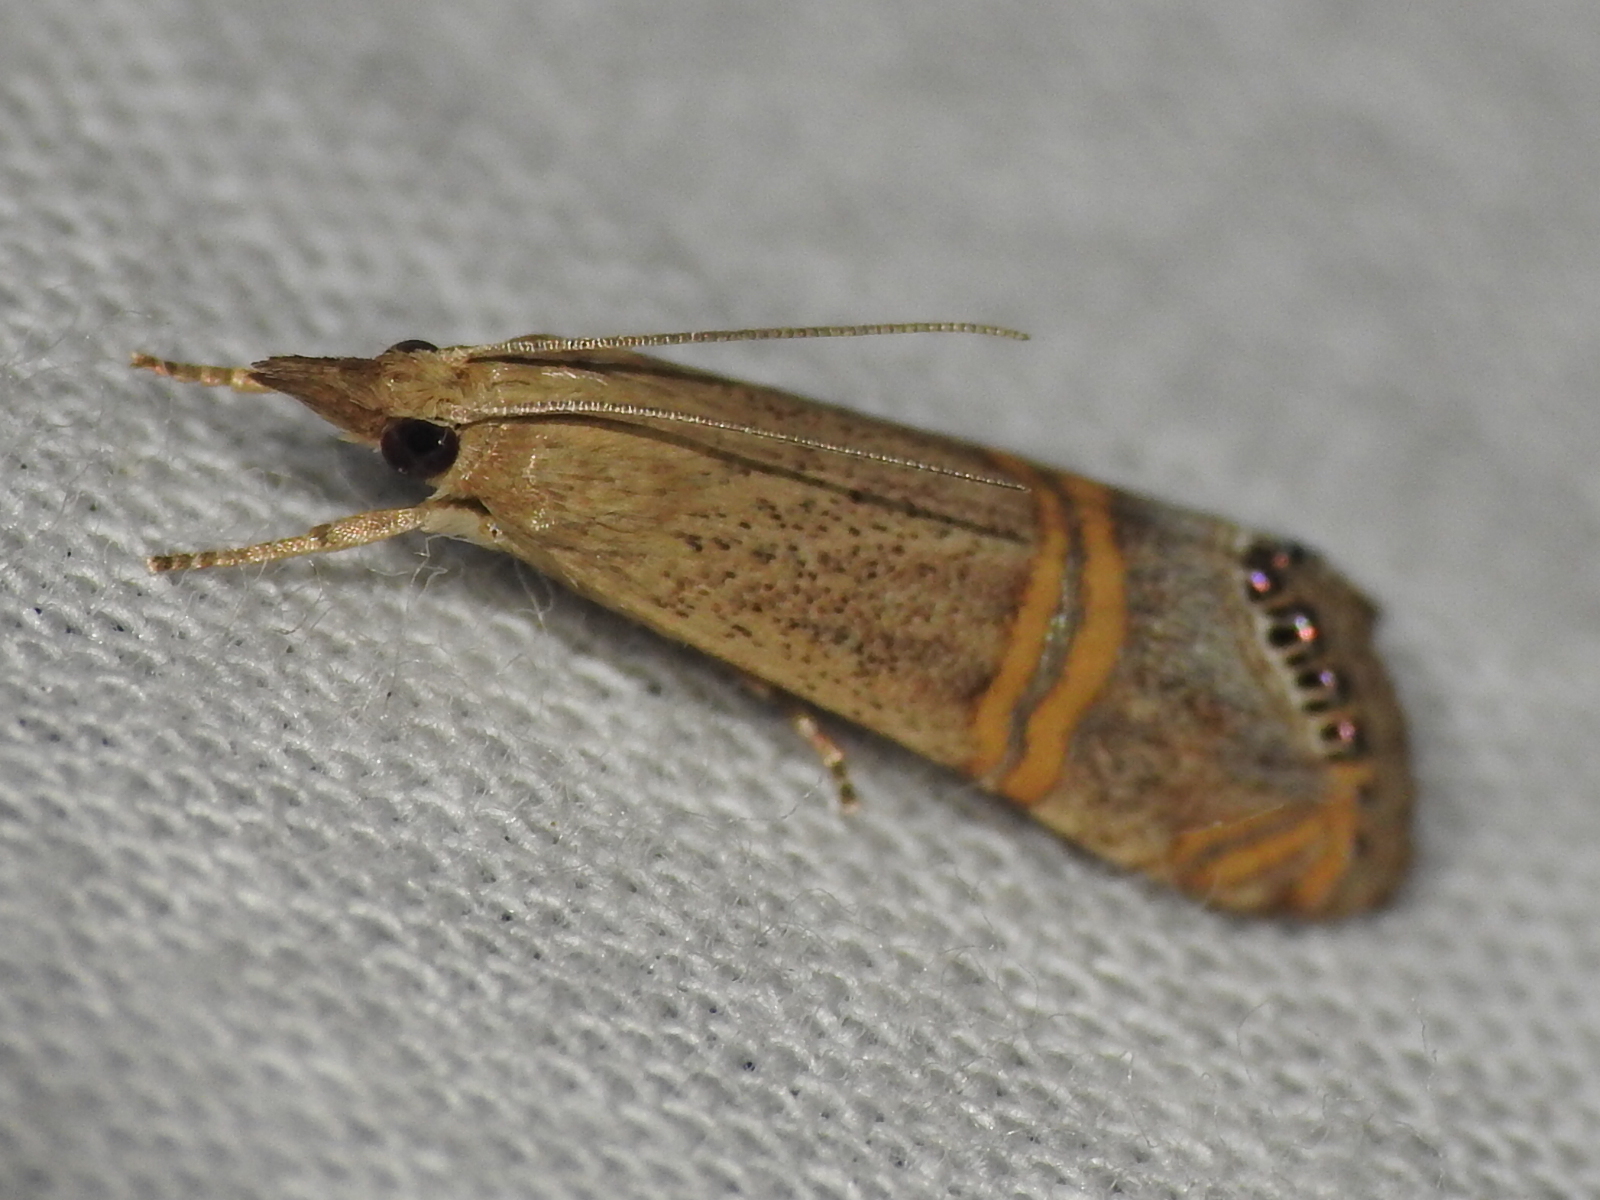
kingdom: Animalia
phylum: Arthropoda
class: Insecta
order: Lepidoptera
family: Crambidae
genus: Euchromius
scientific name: Euchromius ocellea
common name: Necklace veneer moth
